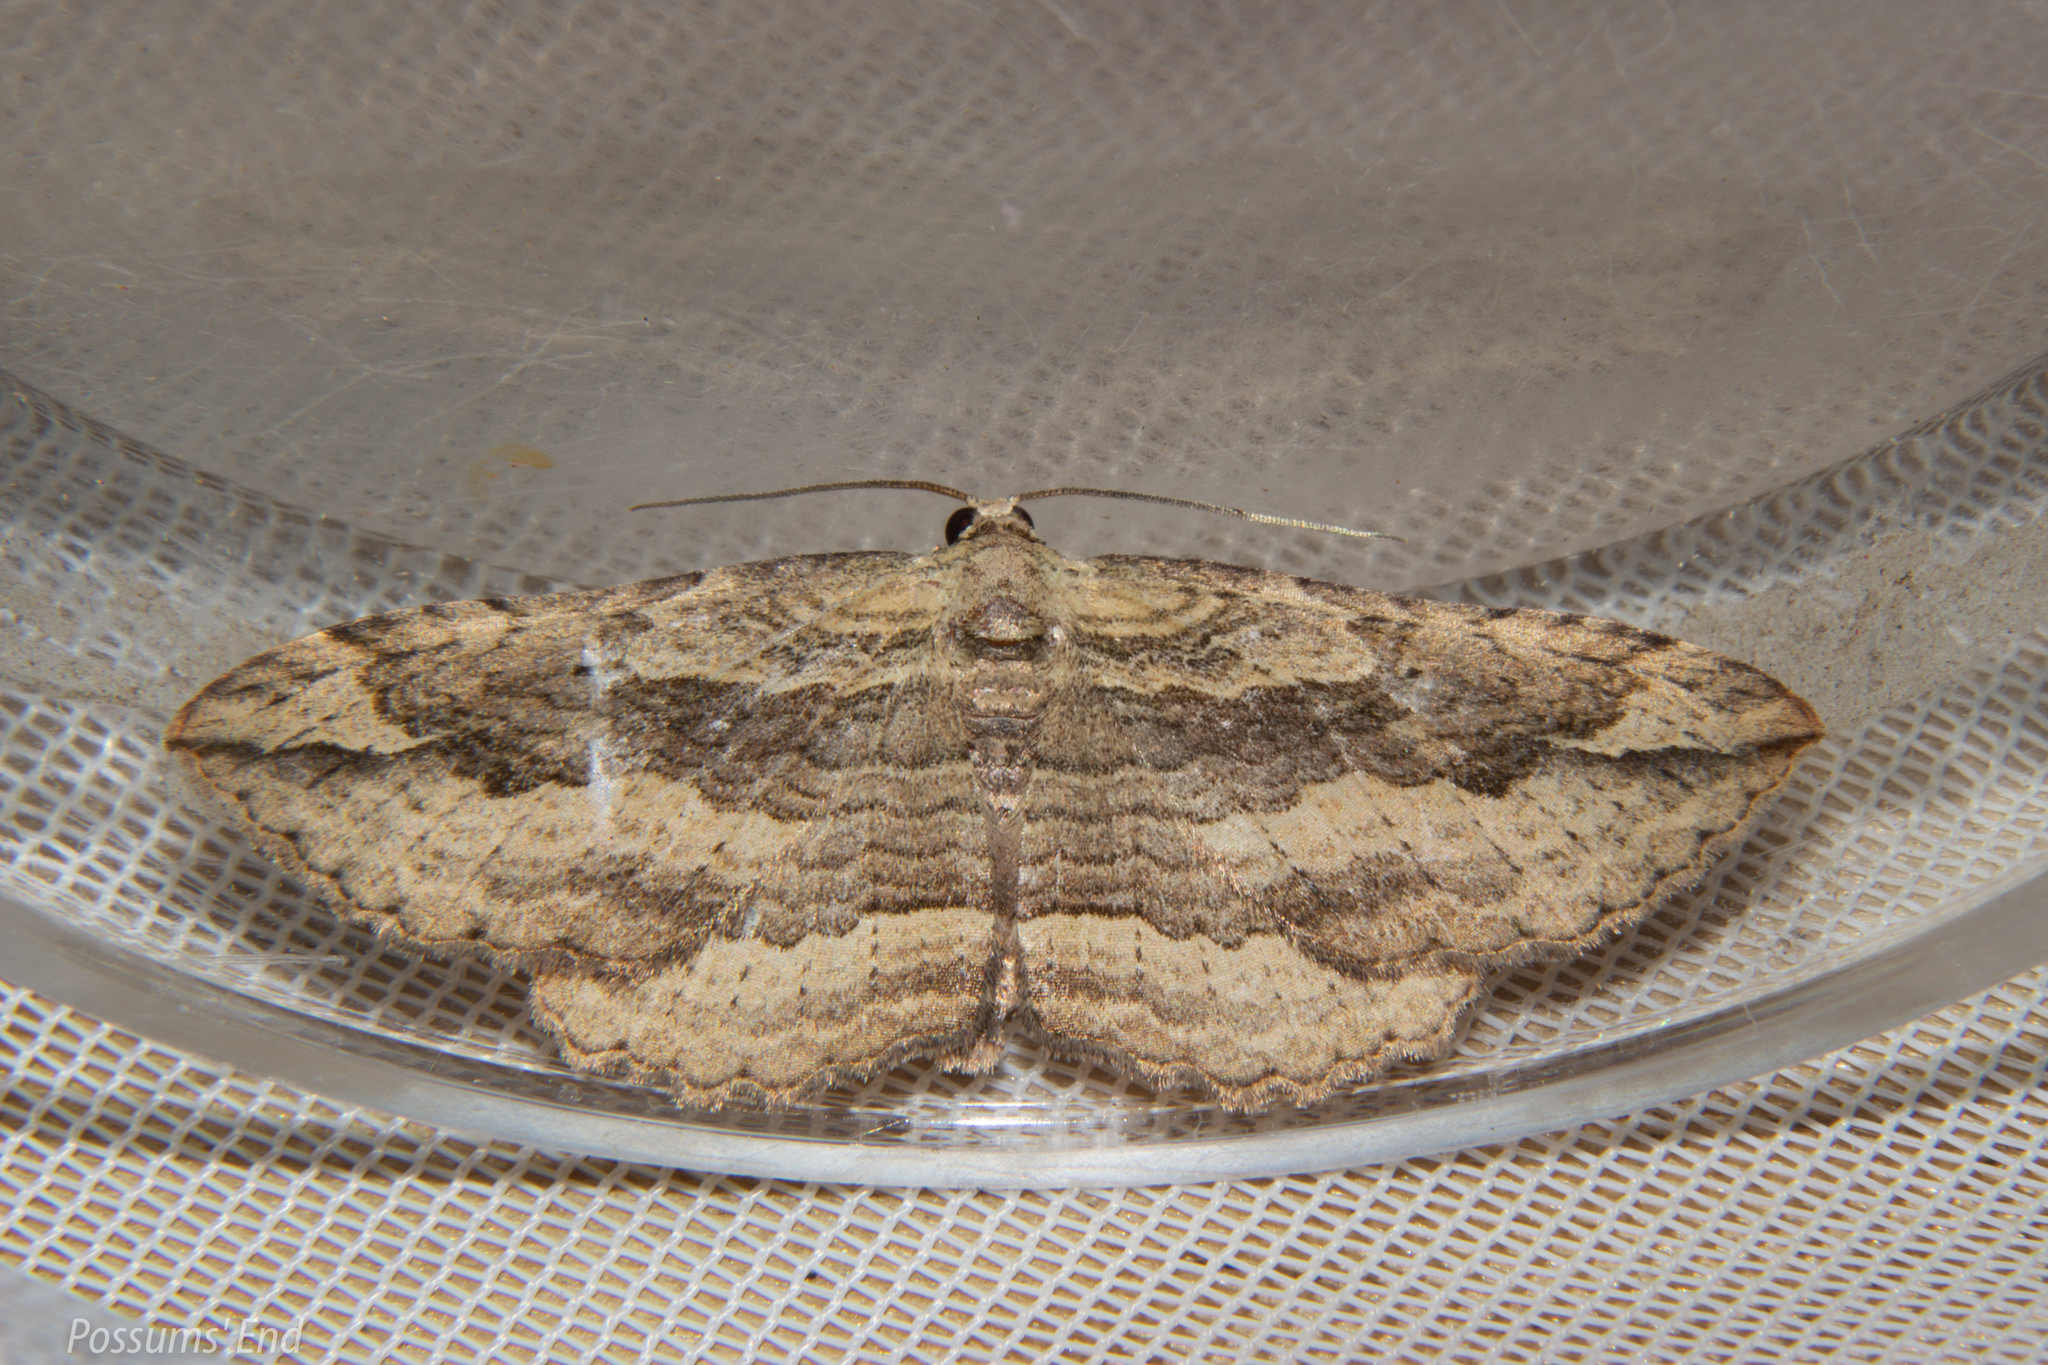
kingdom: Animalia
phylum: Arthropoda
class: Insecta
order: Lepidoptera
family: Geometridae
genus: Austrocidaria
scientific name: Austrocidaria gobiata
